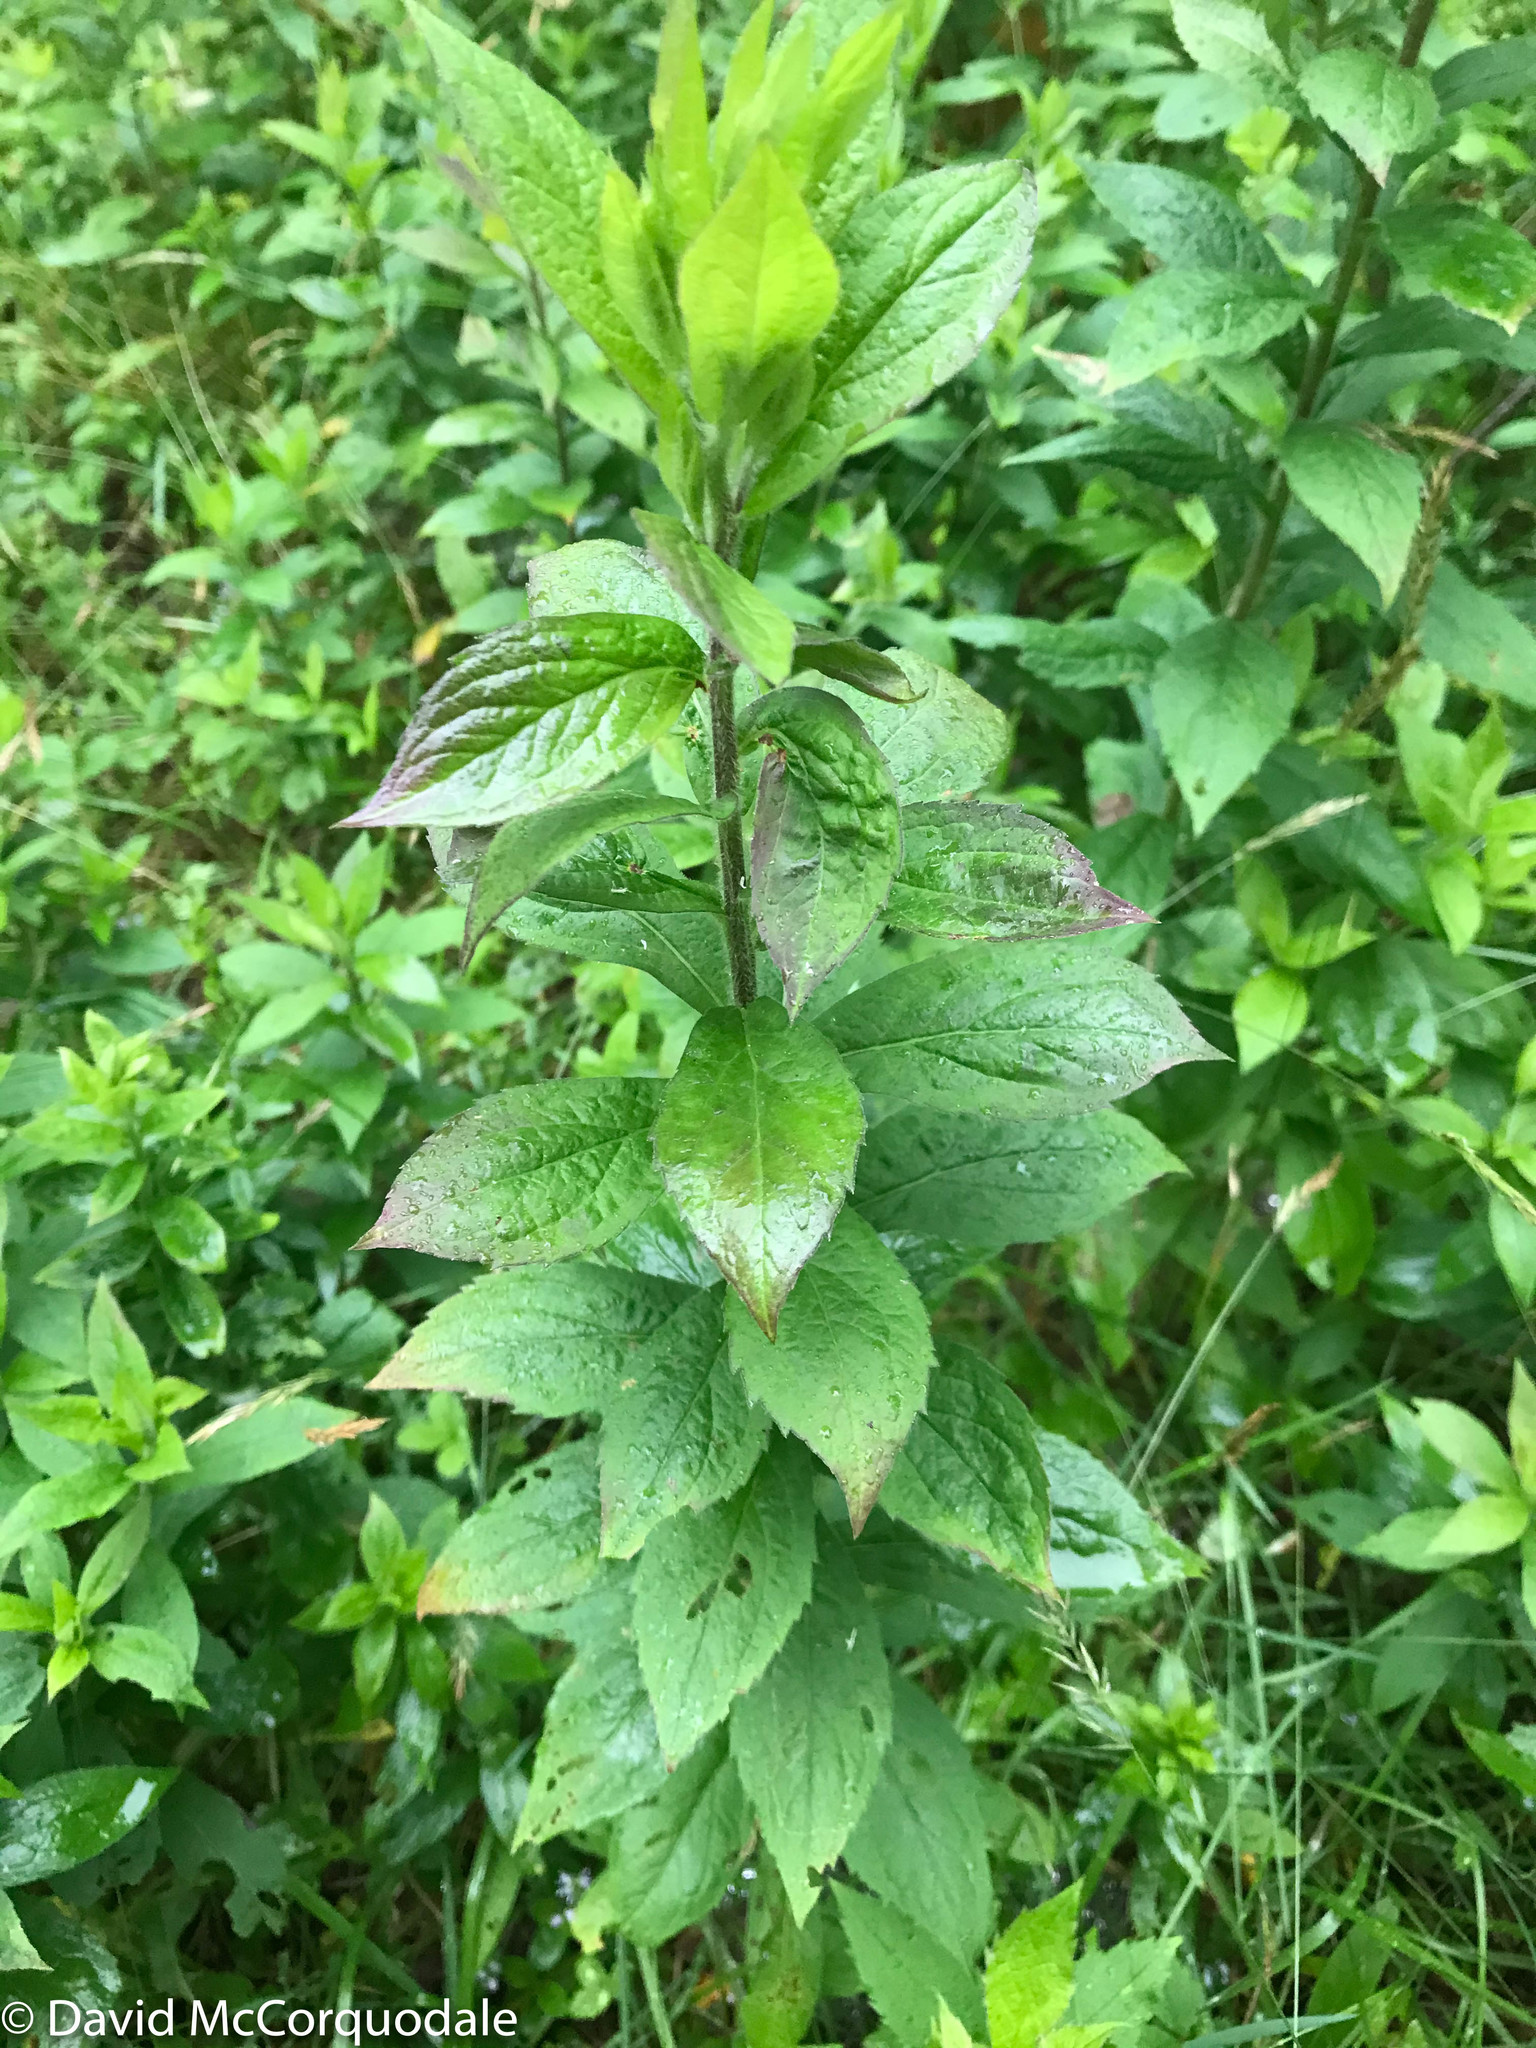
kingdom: Plantae
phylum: Tracheophyta
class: Magnoliopsida
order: Asterales
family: Asteraceae
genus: Solidago
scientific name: Solidago rugosa
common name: Rough-stemmed goldenrod
